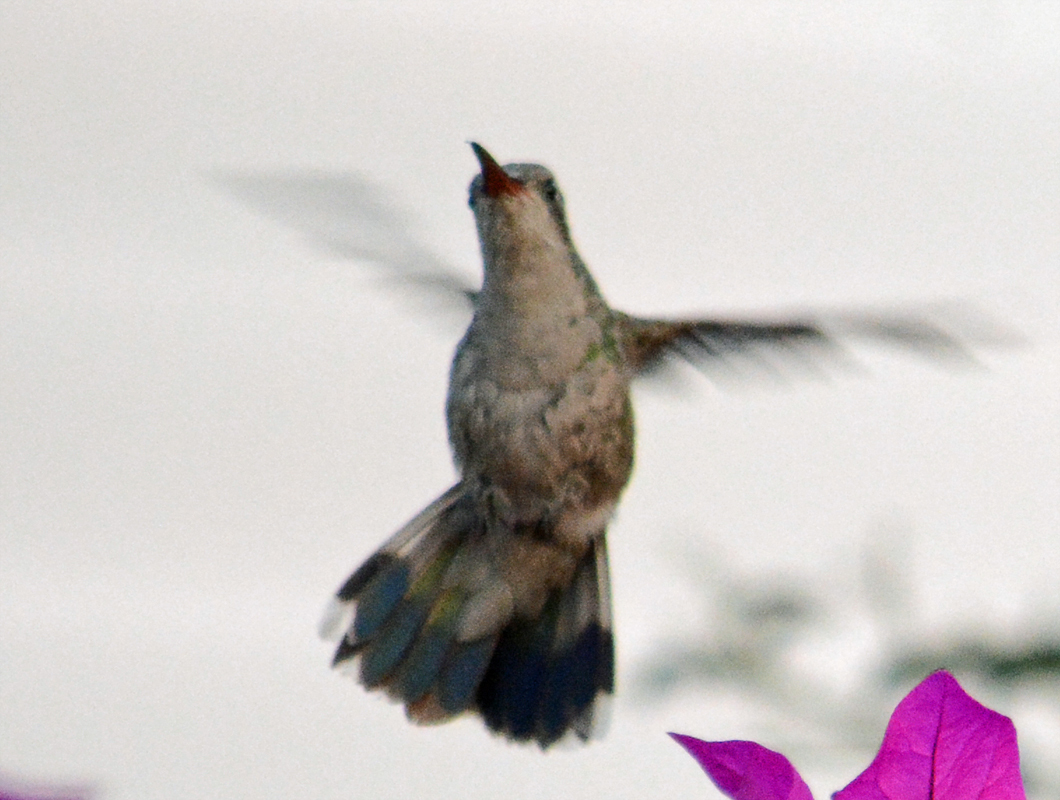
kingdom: Animalia
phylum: Chordata
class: Aves
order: Apodiformes
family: Trochilidae
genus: Cynanthus
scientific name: Cynanthus latirostris
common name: Broad-billed hummingbird
